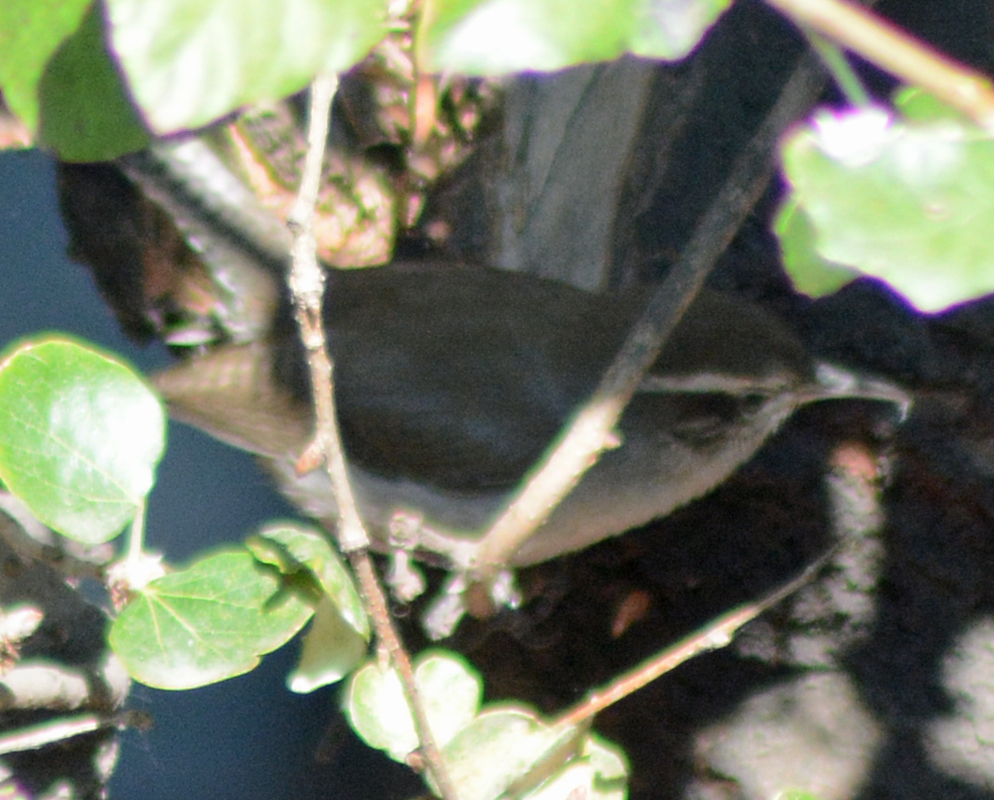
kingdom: Animalia
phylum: Chordata
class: Aves
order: Passeriformes
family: Troglodytidae
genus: Thryomanes
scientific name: Thryomanes bewickii
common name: Bewick's wren
